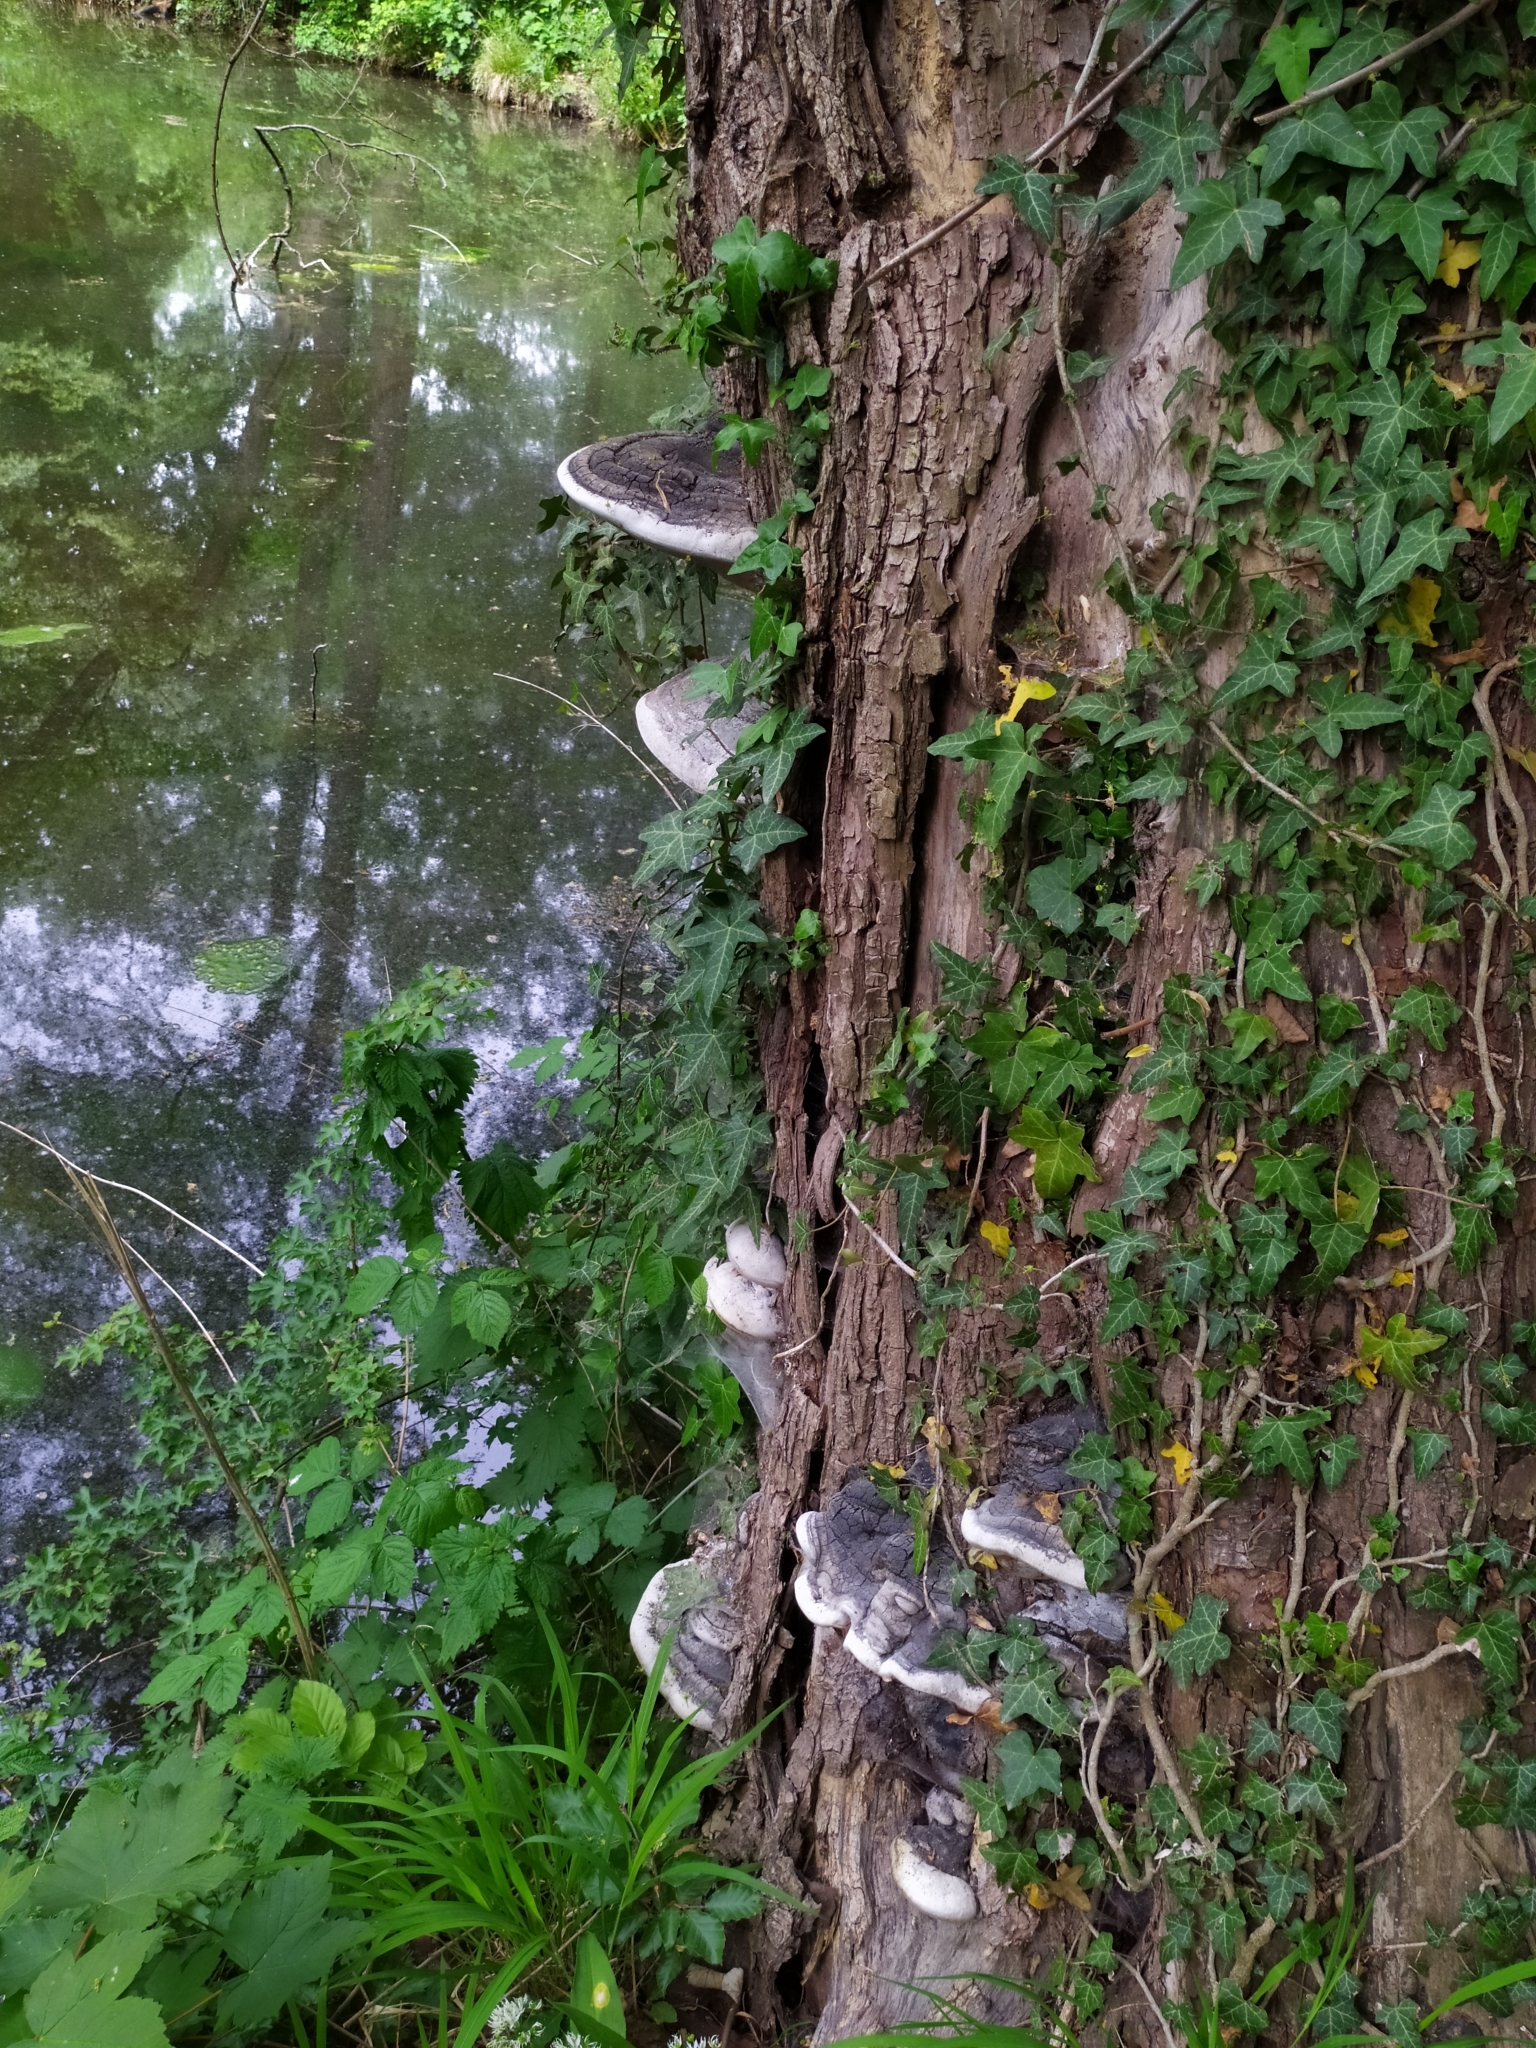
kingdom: Fungi
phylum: Basidiomycota
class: Agaricomycetes
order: Hymenochaetales
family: Hymenochaetaceae
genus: Phellinus
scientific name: Phellinus igniarius
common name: Willow bracket
